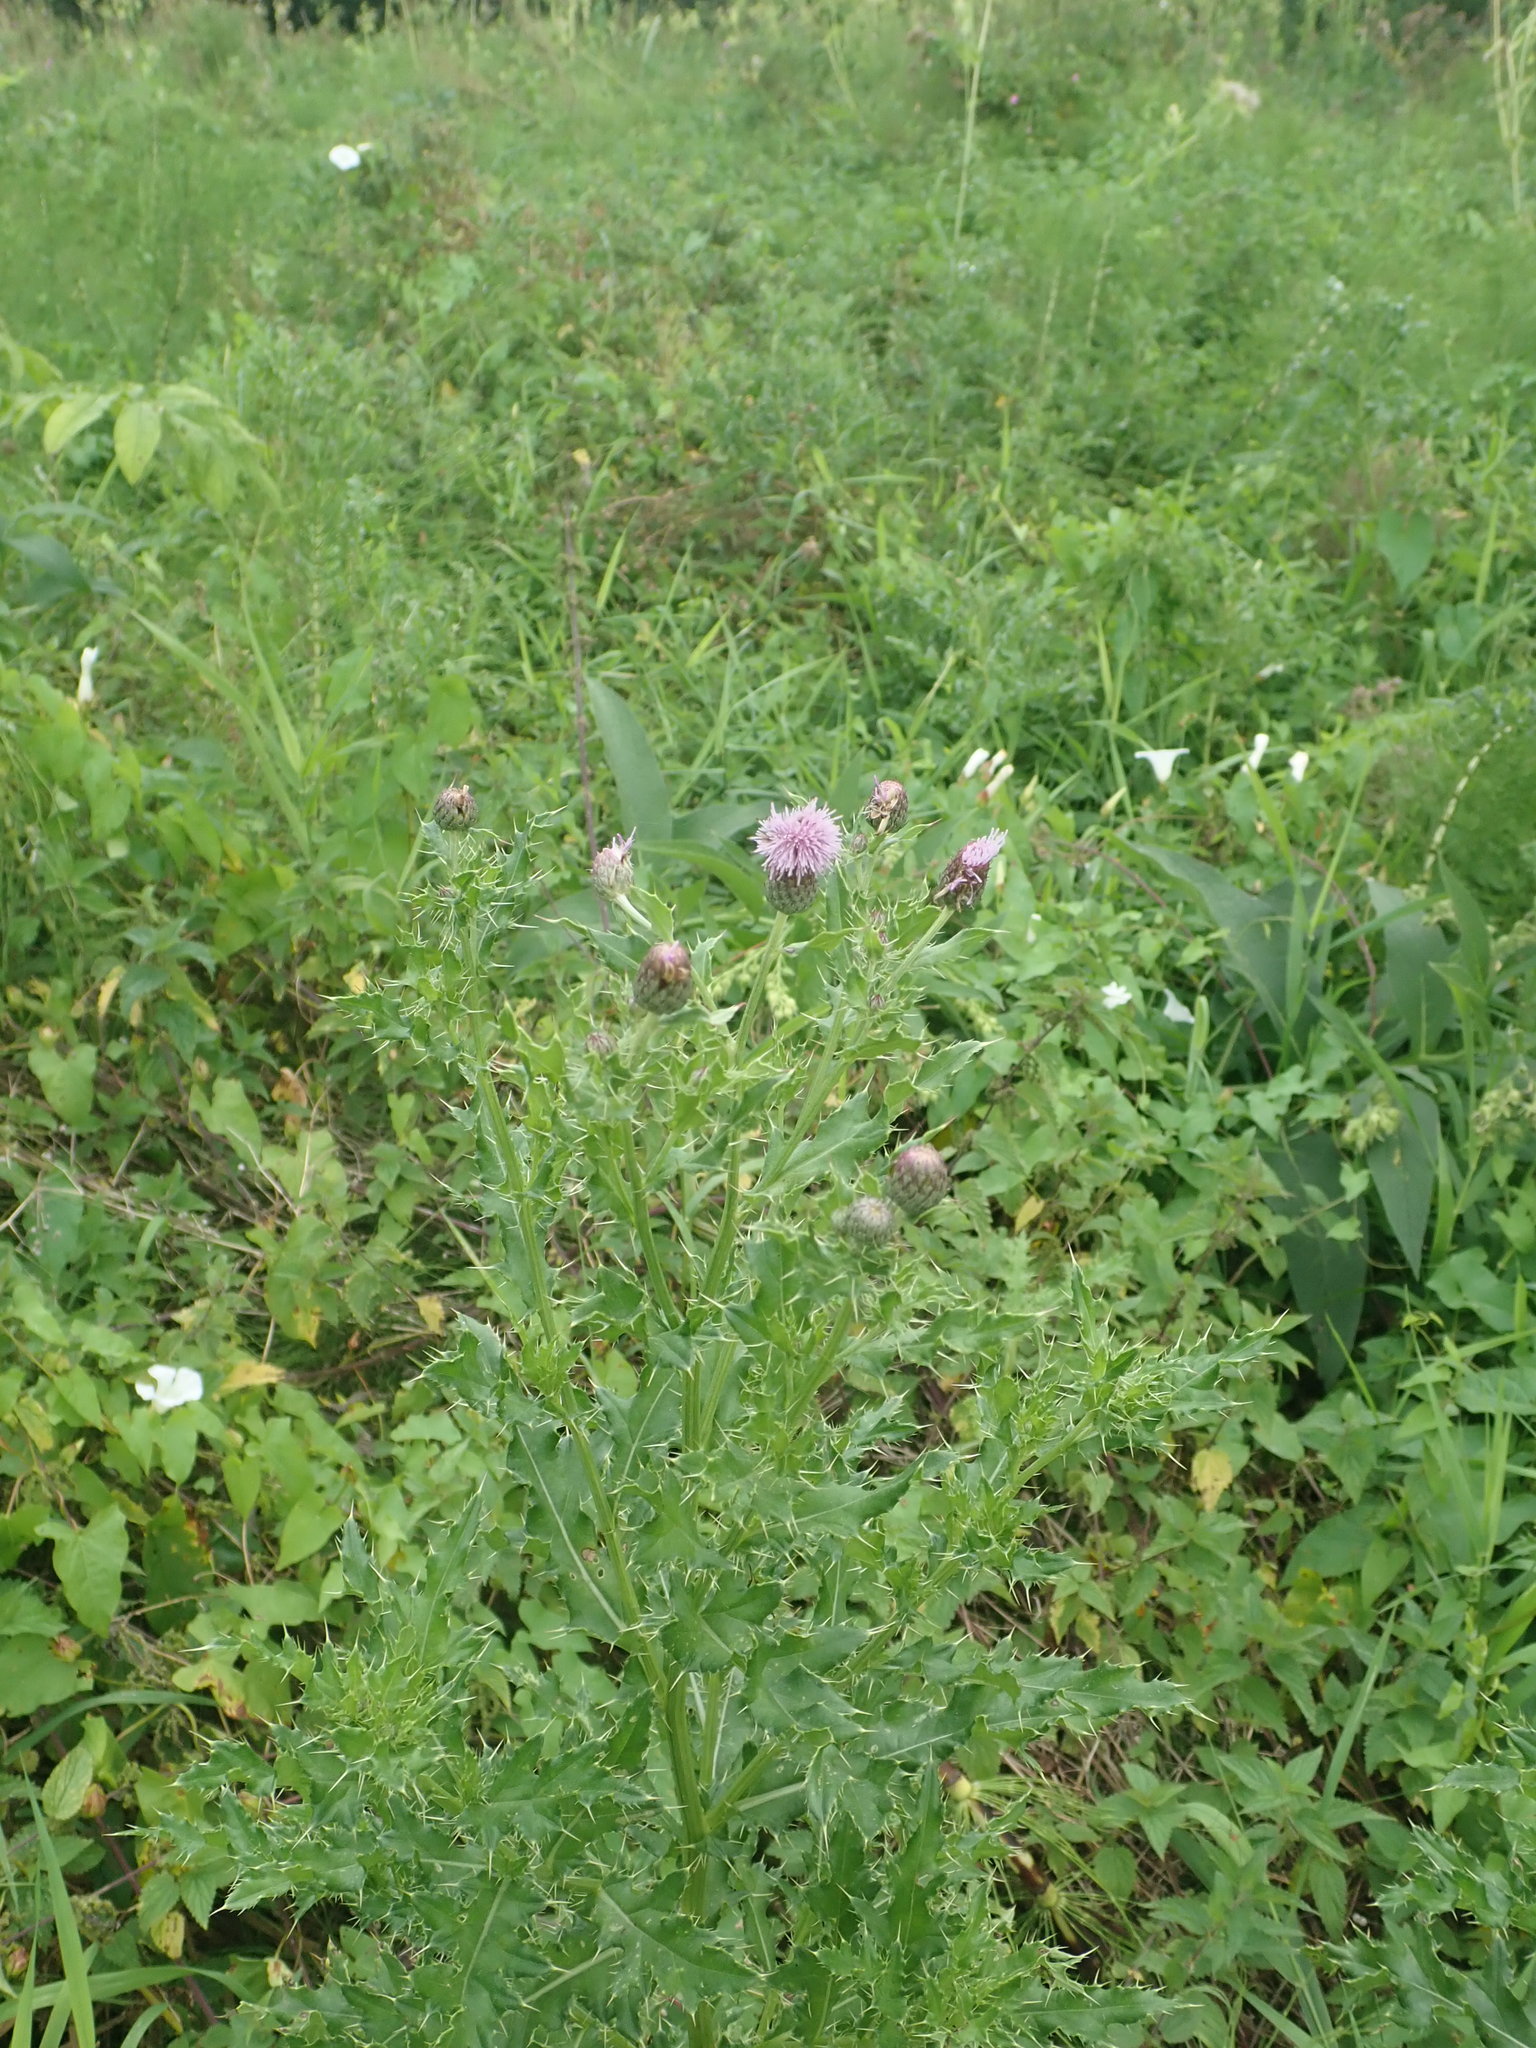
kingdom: Plantae
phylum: Tracheophyta
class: Magnoliopsida
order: Asterales
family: Asteraceae
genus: Cirsium
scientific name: Cirsium arvense
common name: Creeping thistle
